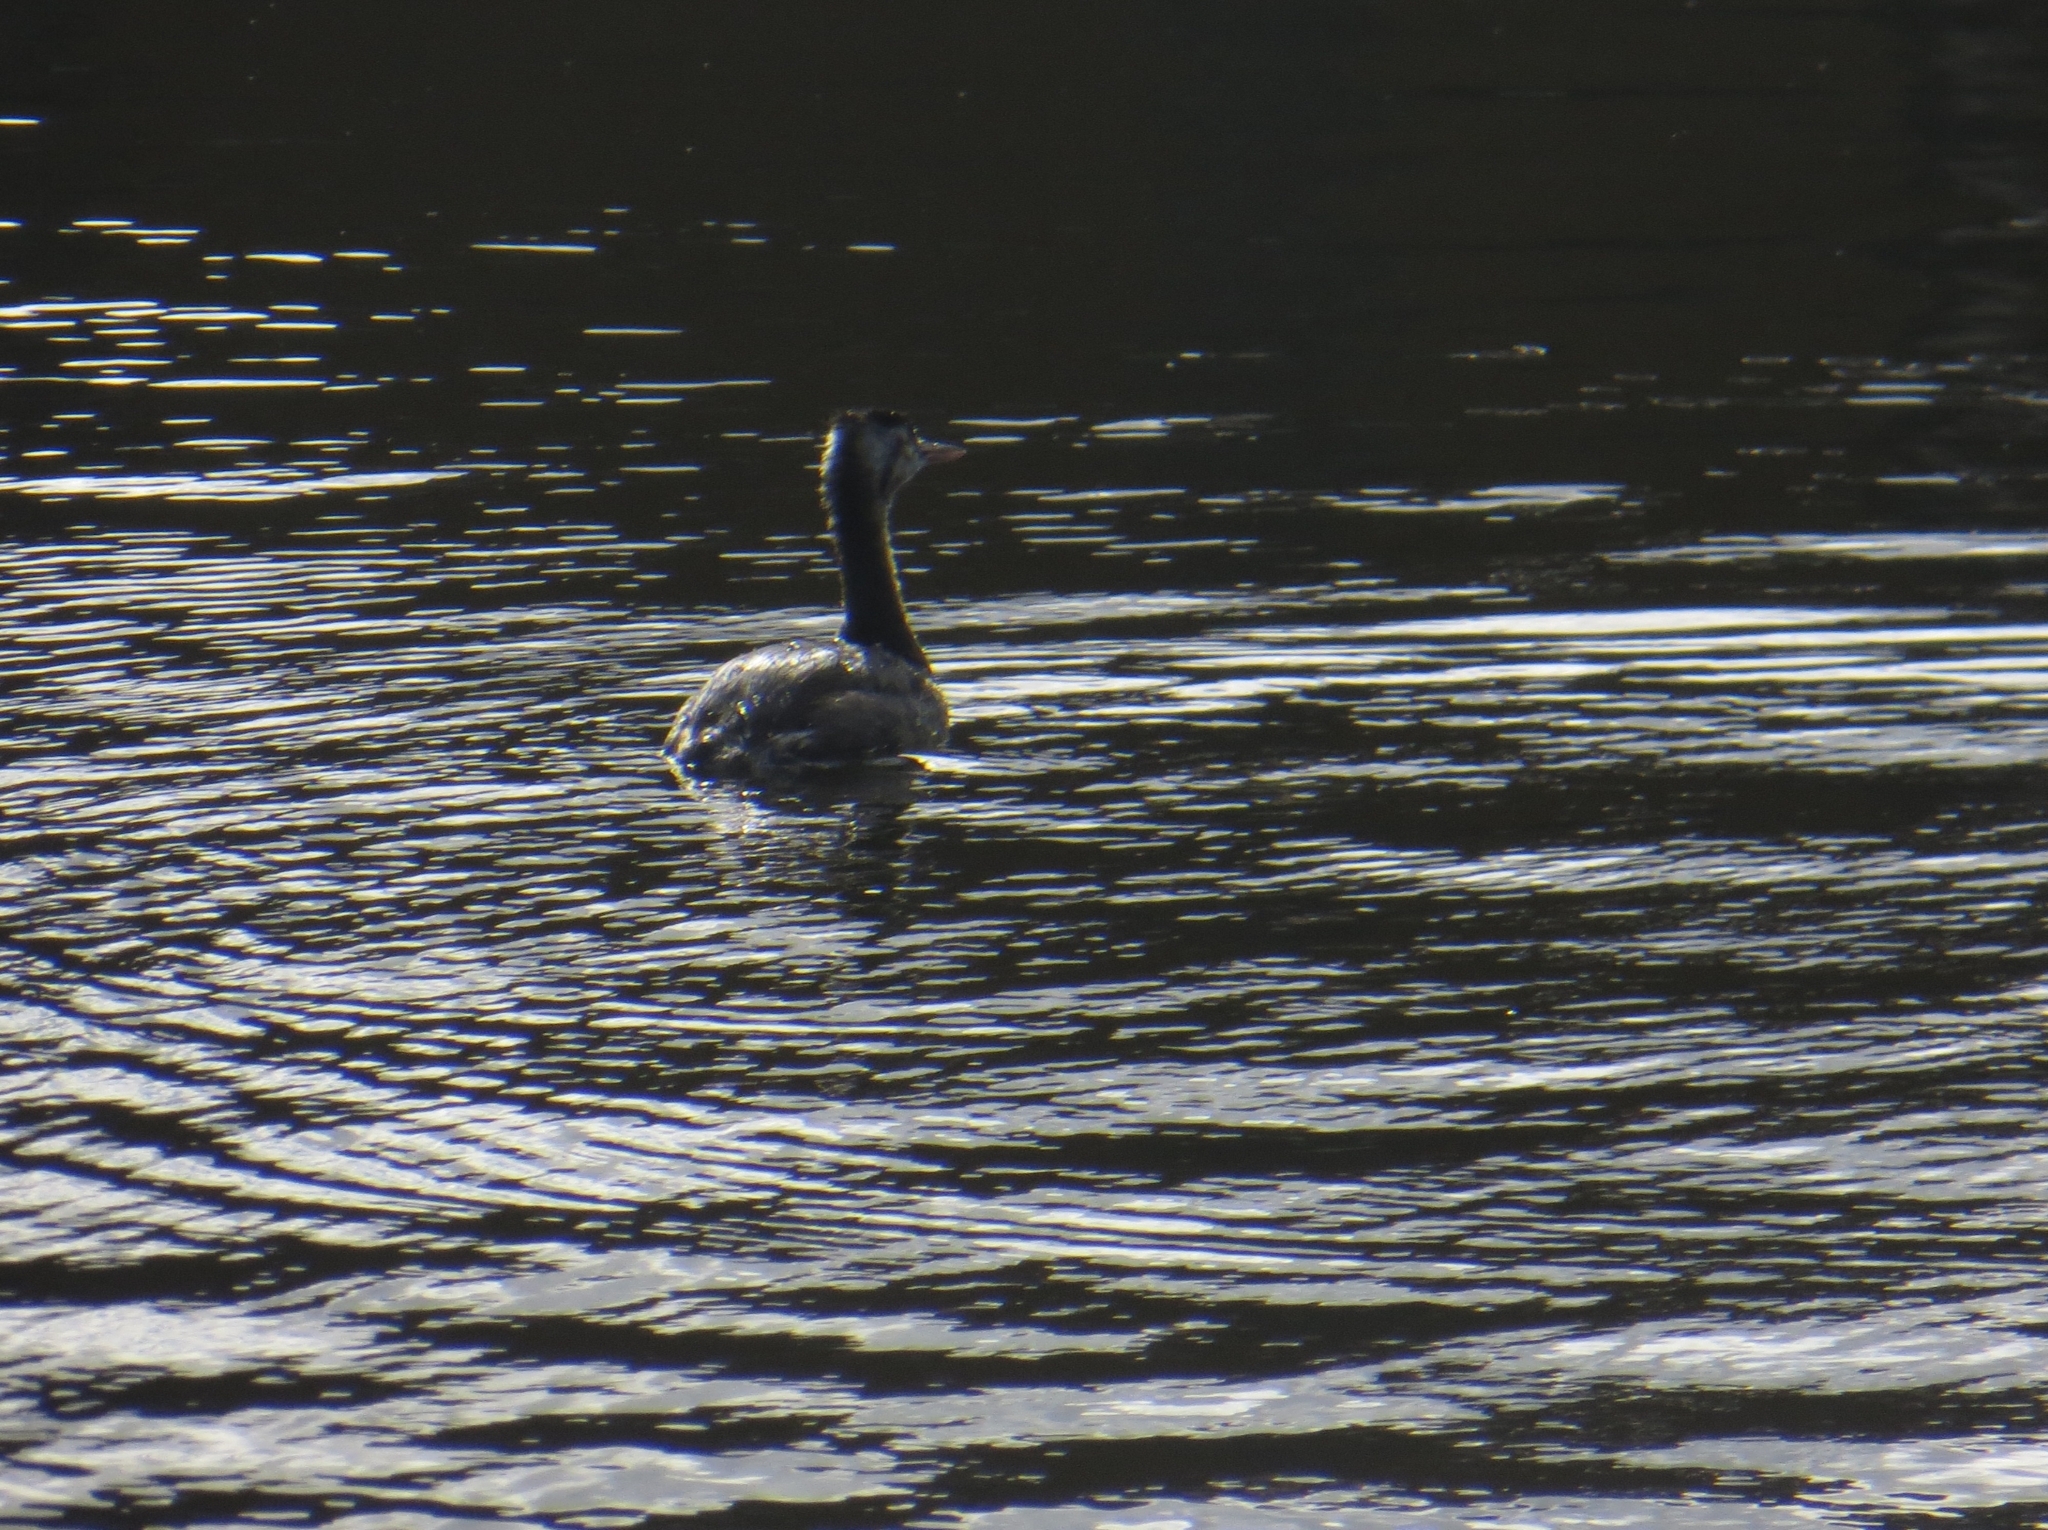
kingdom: Animalia
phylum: Chordata
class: Aves
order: Podicipediformes
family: Podicipedidae
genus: Podiceps
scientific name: Podiceps cristatus
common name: Great crested grebe
